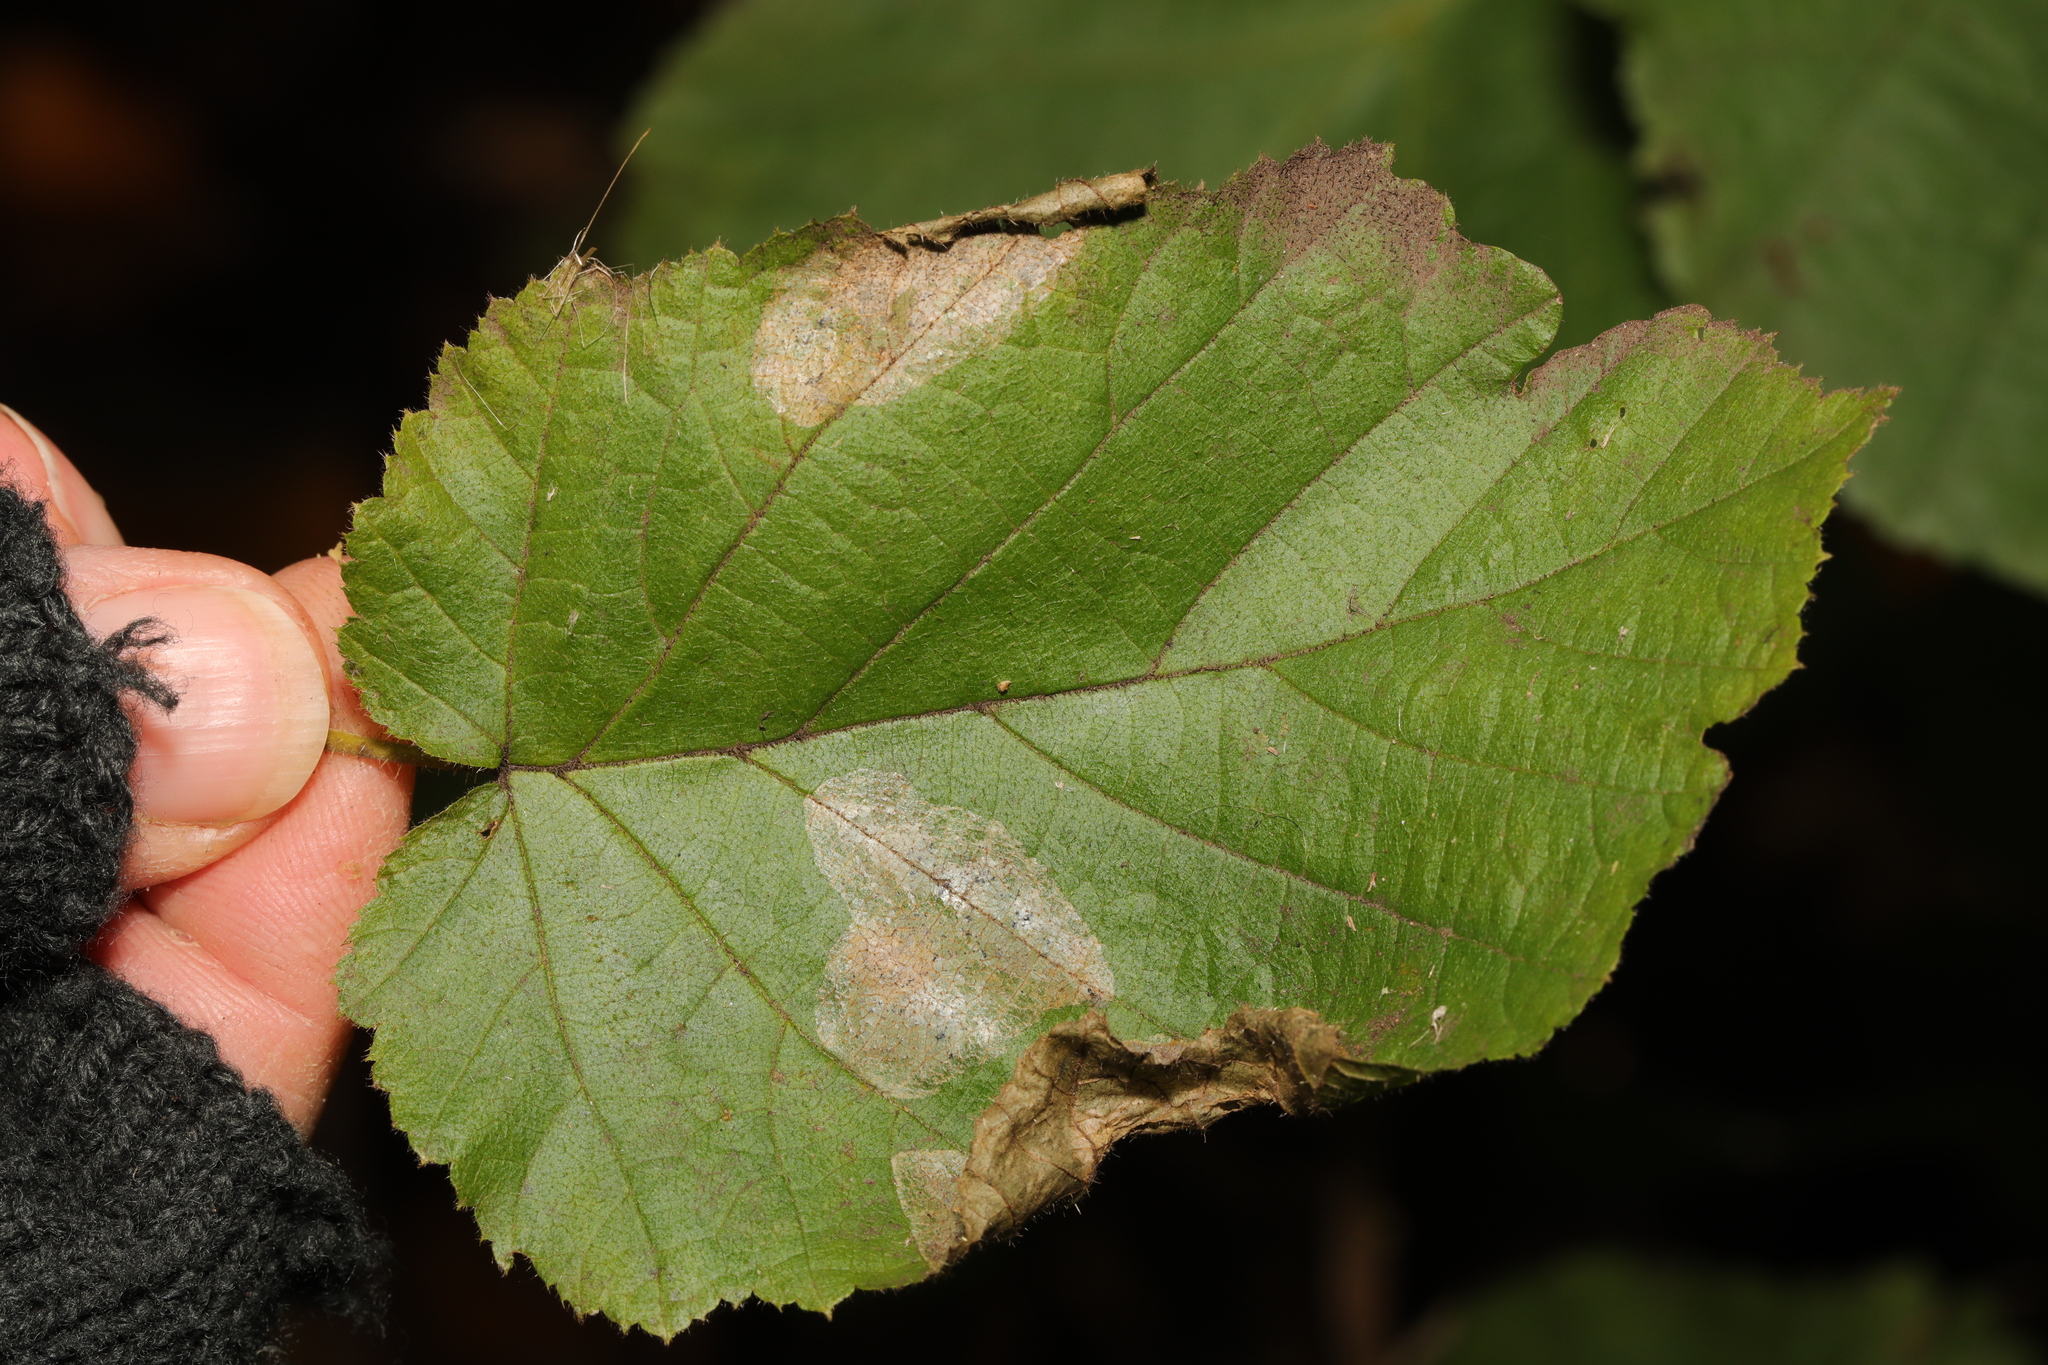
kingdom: Animalia
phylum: Arthropoda
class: Insecta
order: Lepidoptera
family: Gracillariidae
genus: Phyllonorycter
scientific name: Phyllonorycter coryli
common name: Nut-leaf blister moth
